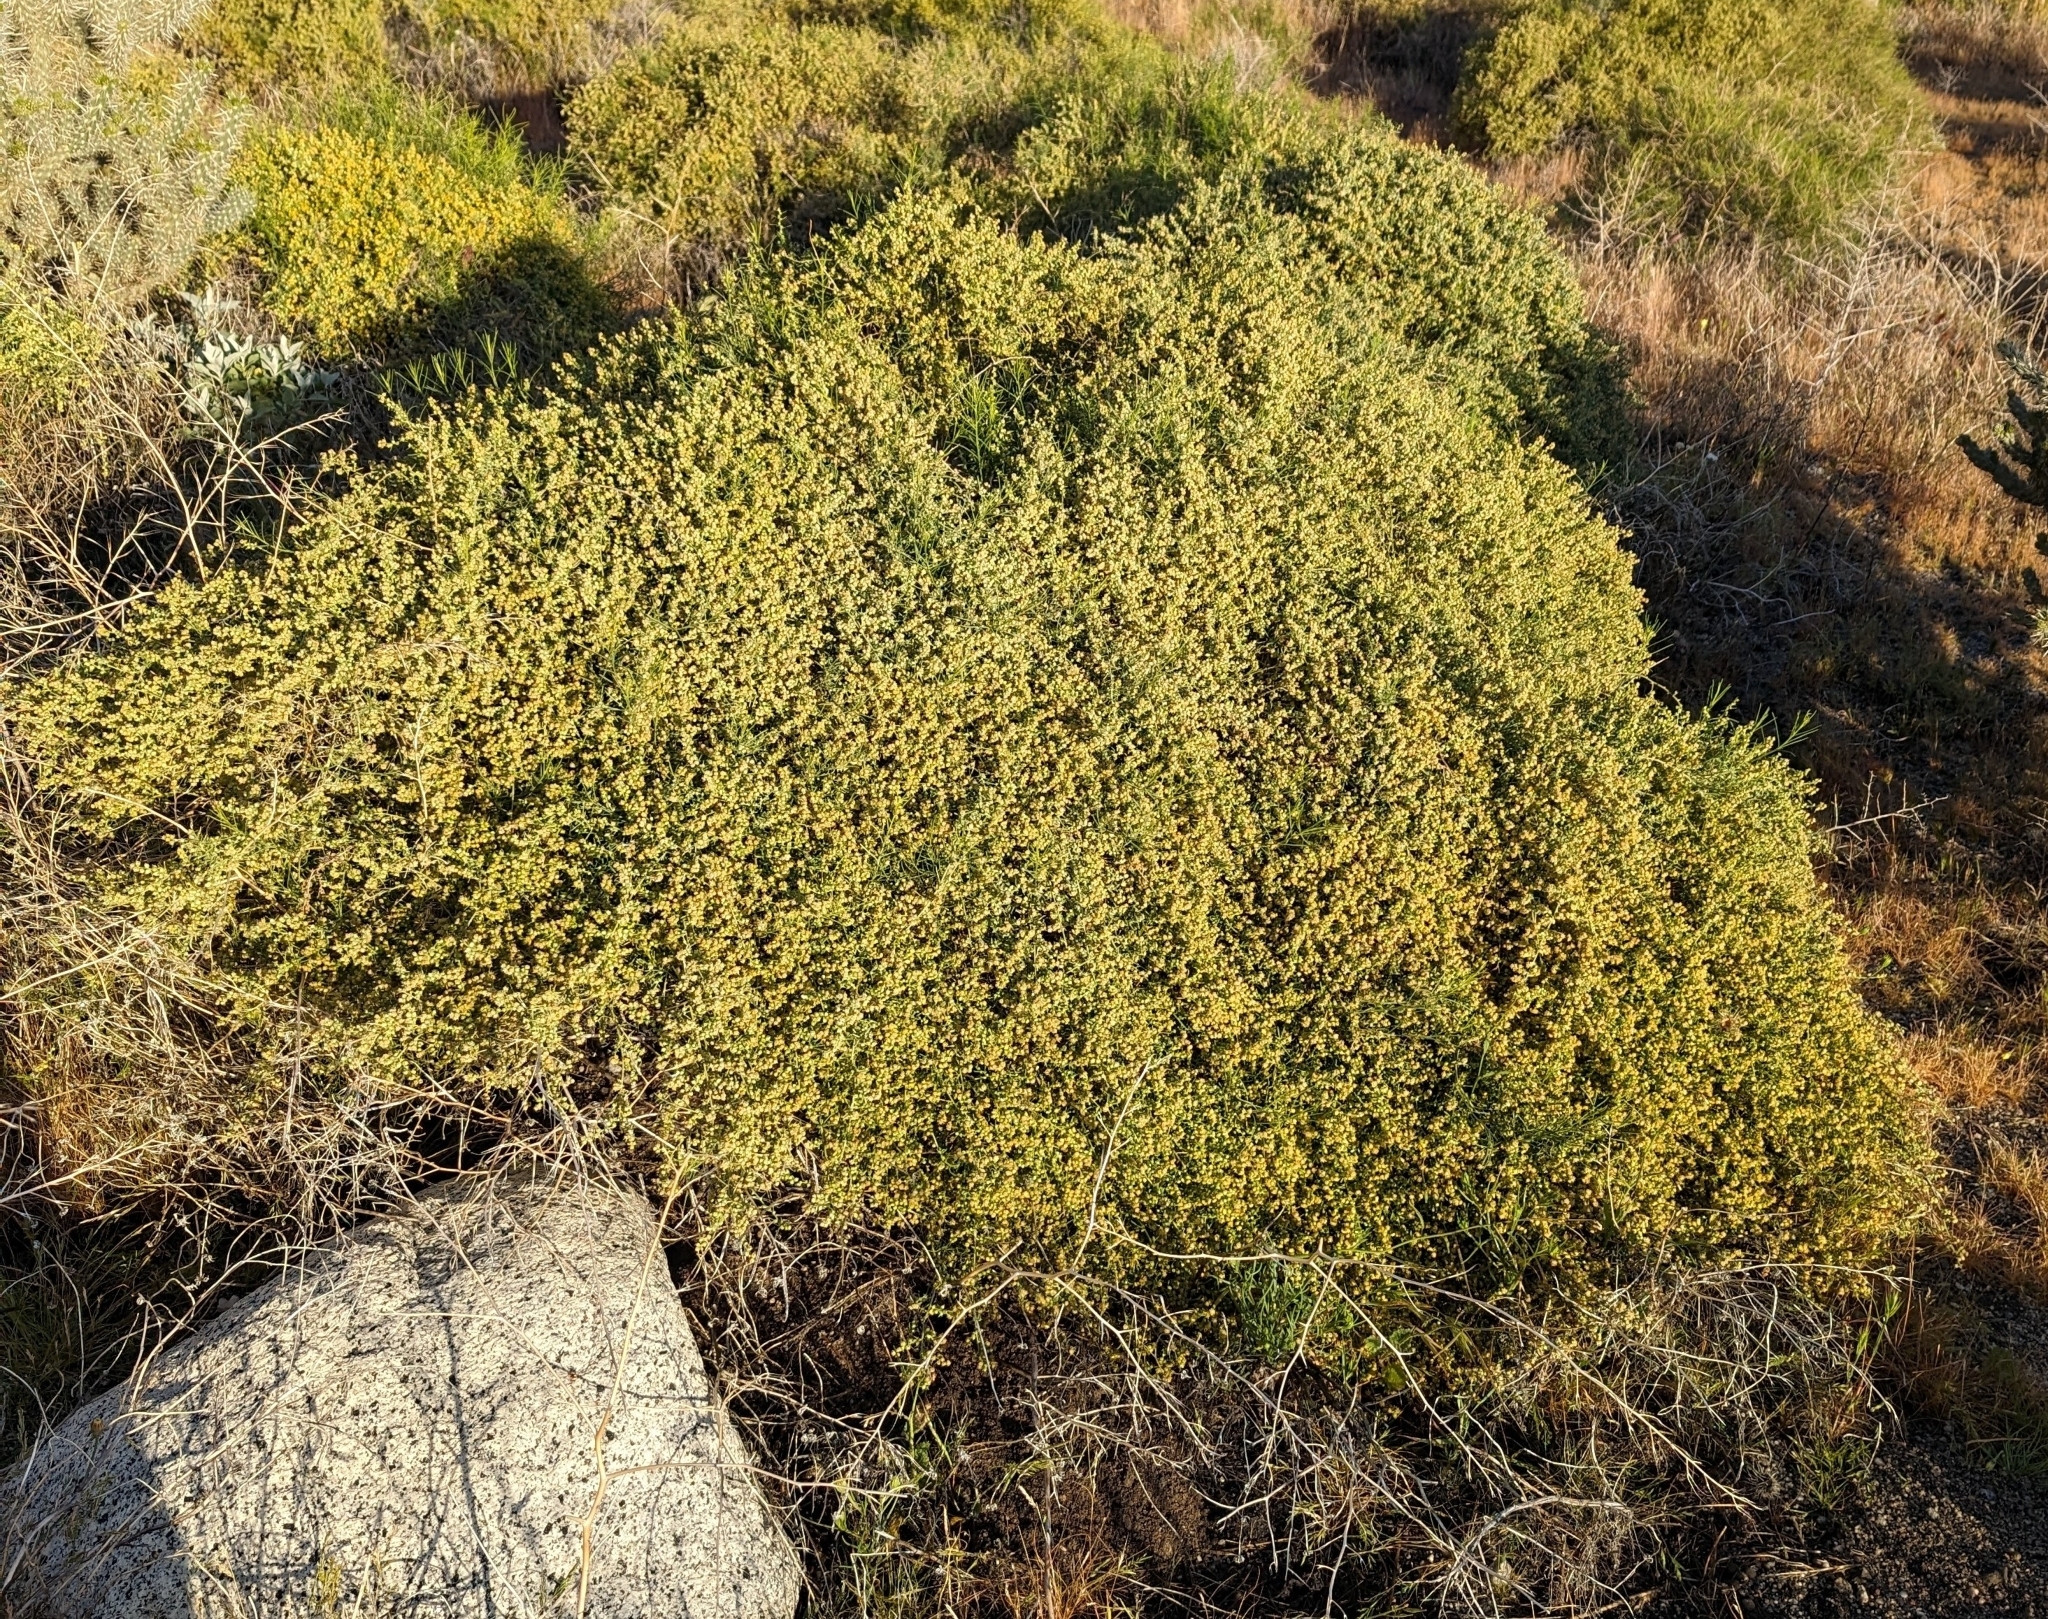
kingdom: Plantae
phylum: Tracheophyta
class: Magnoliopsida
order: Asterales
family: Asteraceae
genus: Ambrosia
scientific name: Ambrosia salsola
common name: Burrobrush
